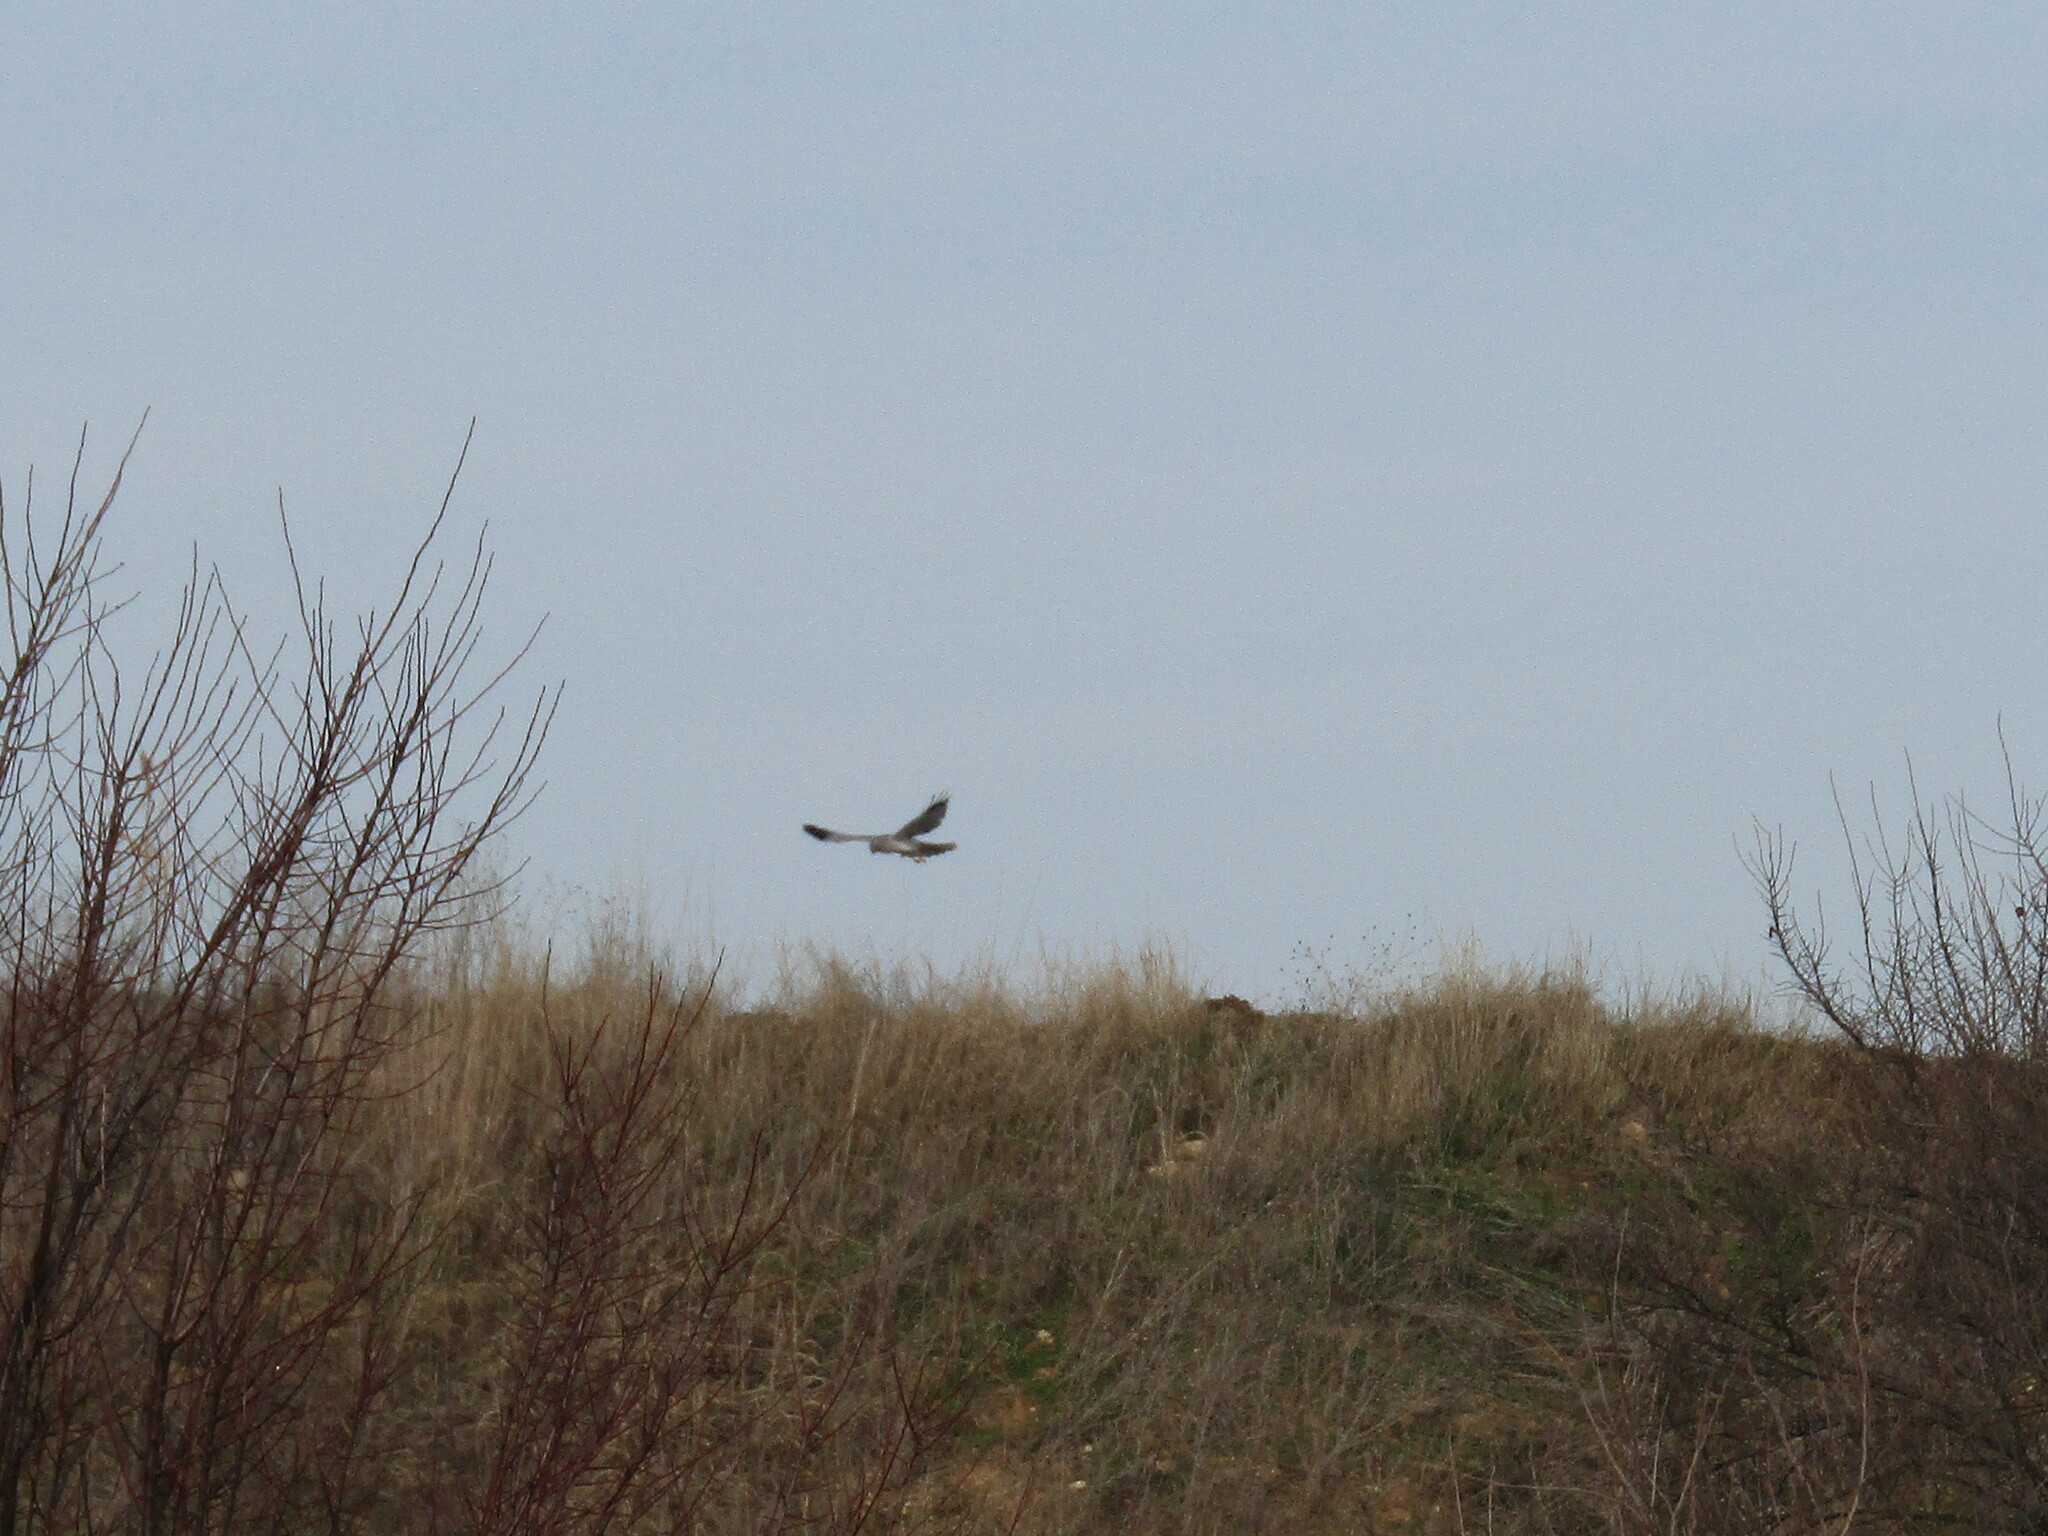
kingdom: Animalia
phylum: Chordata
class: Aves
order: Accipitriformes
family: Accipitridae
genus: Circus
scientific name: Circus cyaneus
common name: Hen harrier
